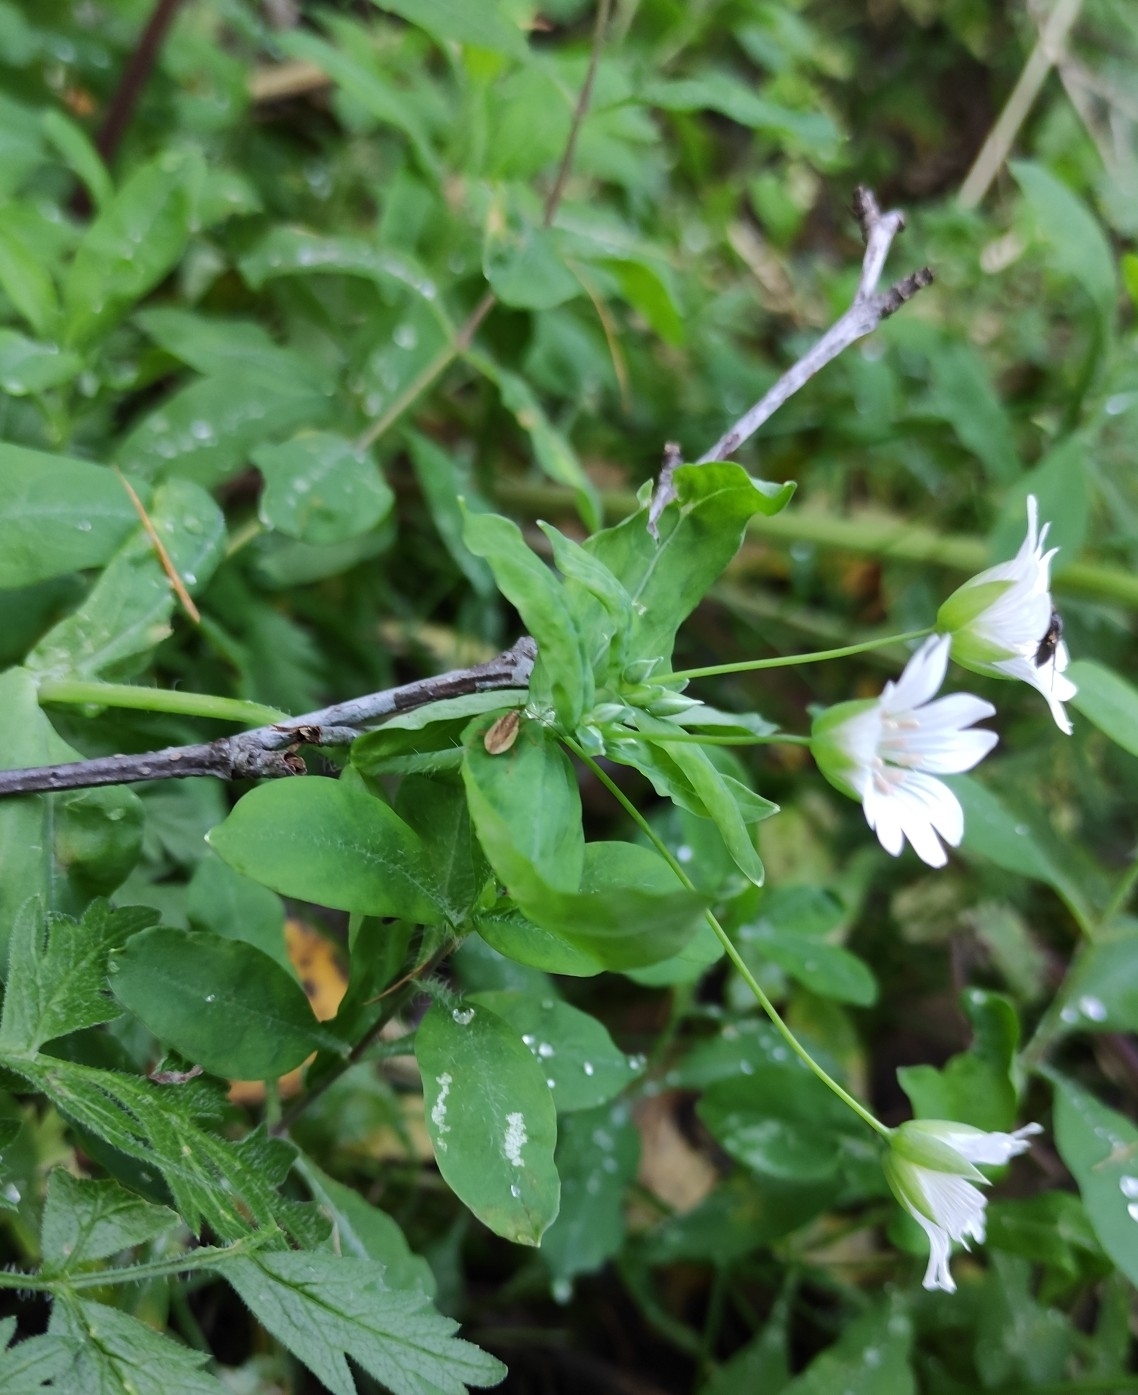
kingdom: Plantae
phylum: Tracheophyta
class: Magnoliopsida
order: Caryophyllales
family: Caryophyllaceae
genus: Cerastium
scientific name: Cerastium davuricum
